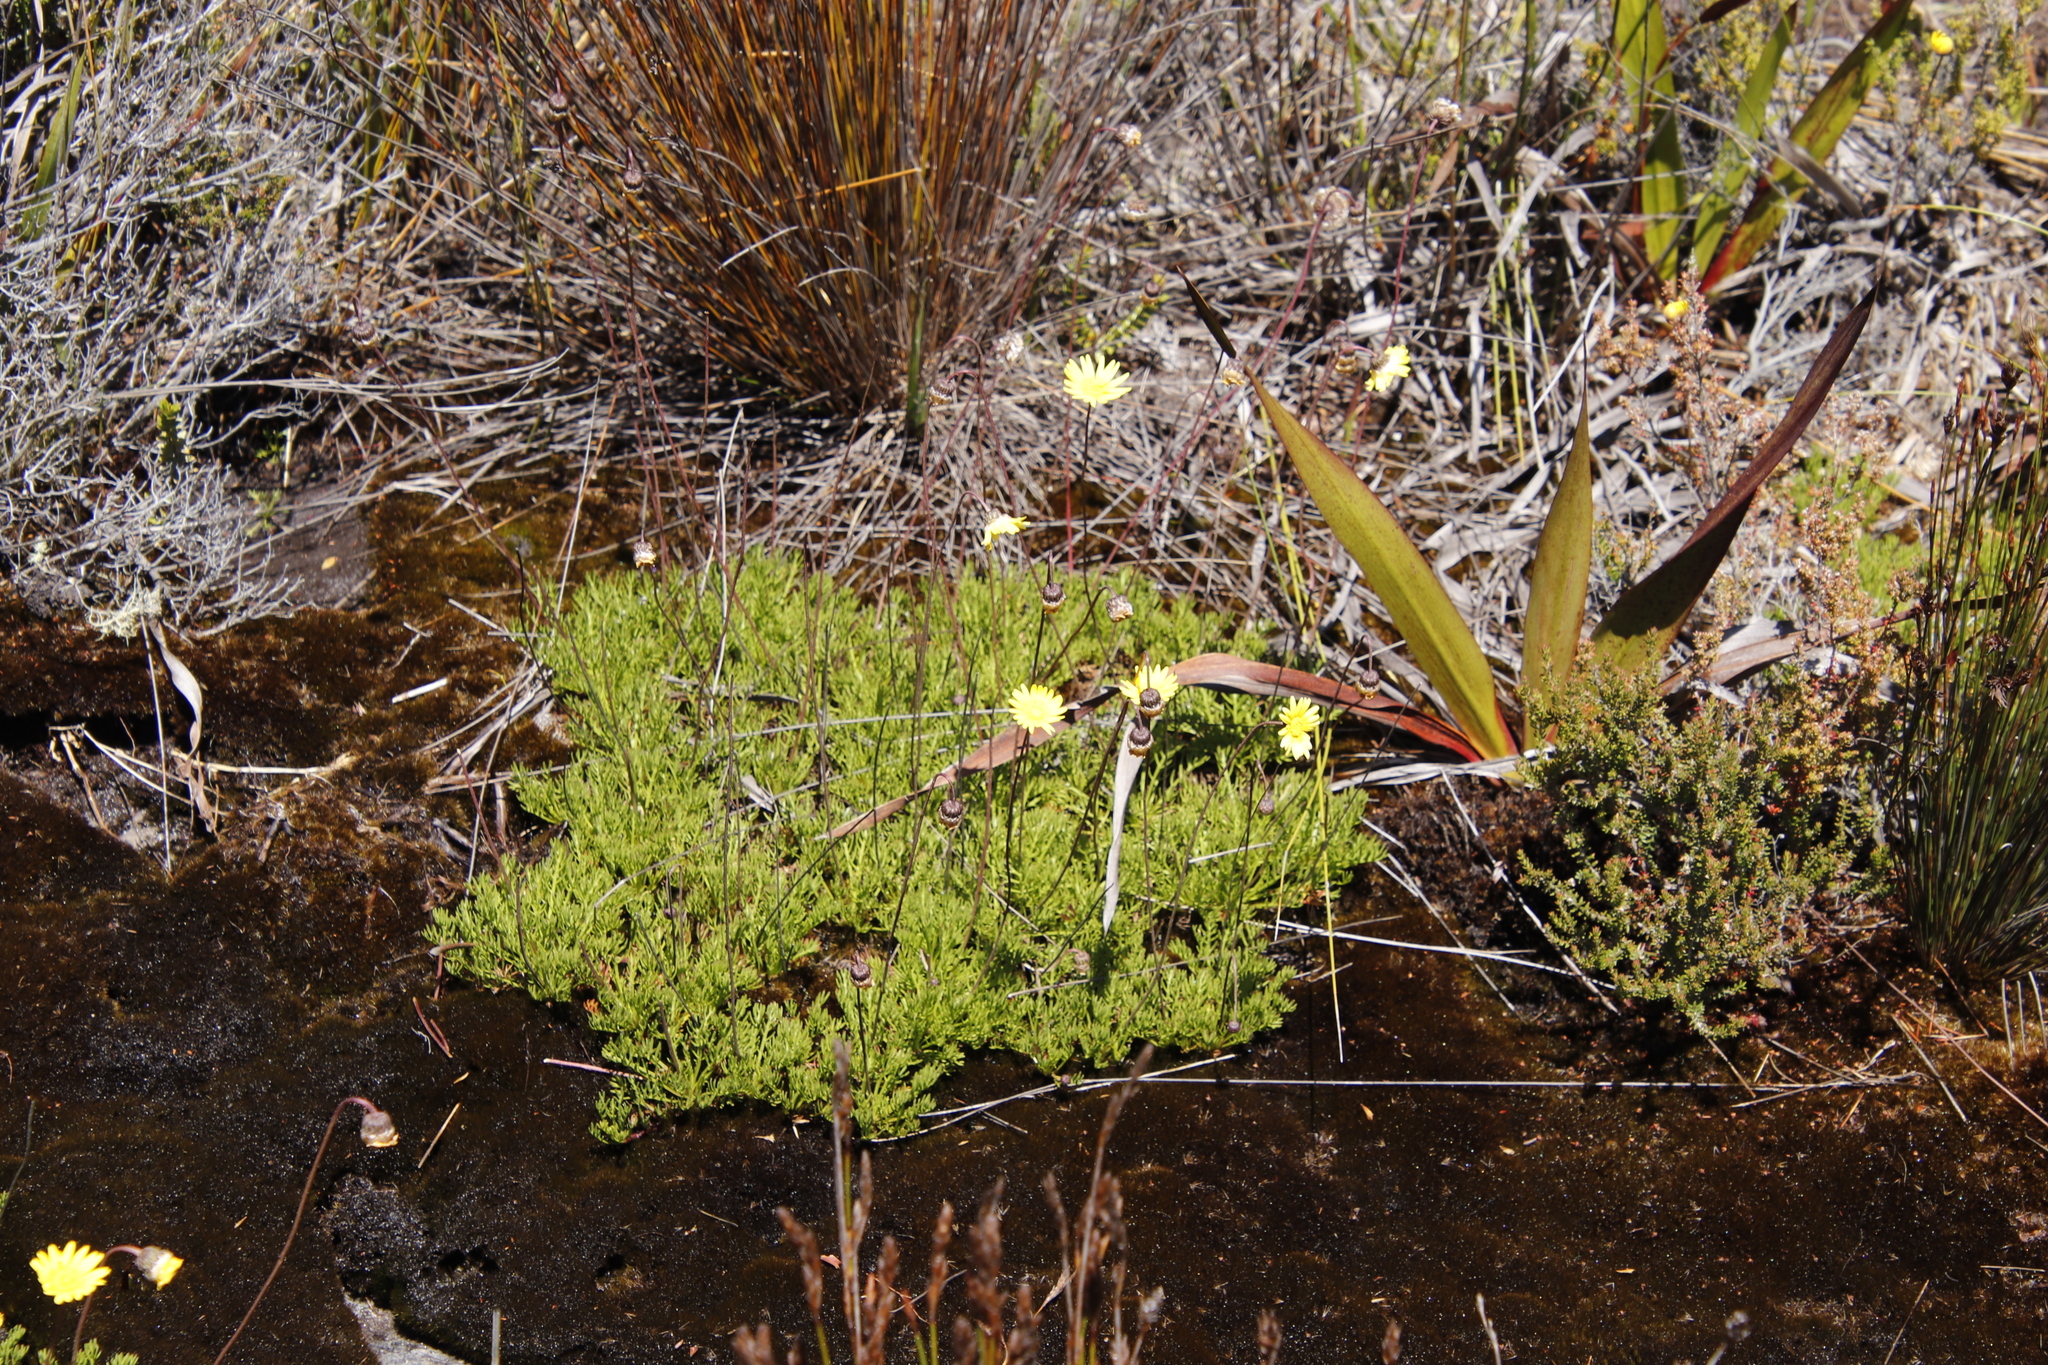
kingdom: Plantae
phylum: Tracheophyta
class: Magnoliopsida
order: Asterales
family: Asteraceae
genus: Ursinia
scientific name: Ursinia nudicaulis
